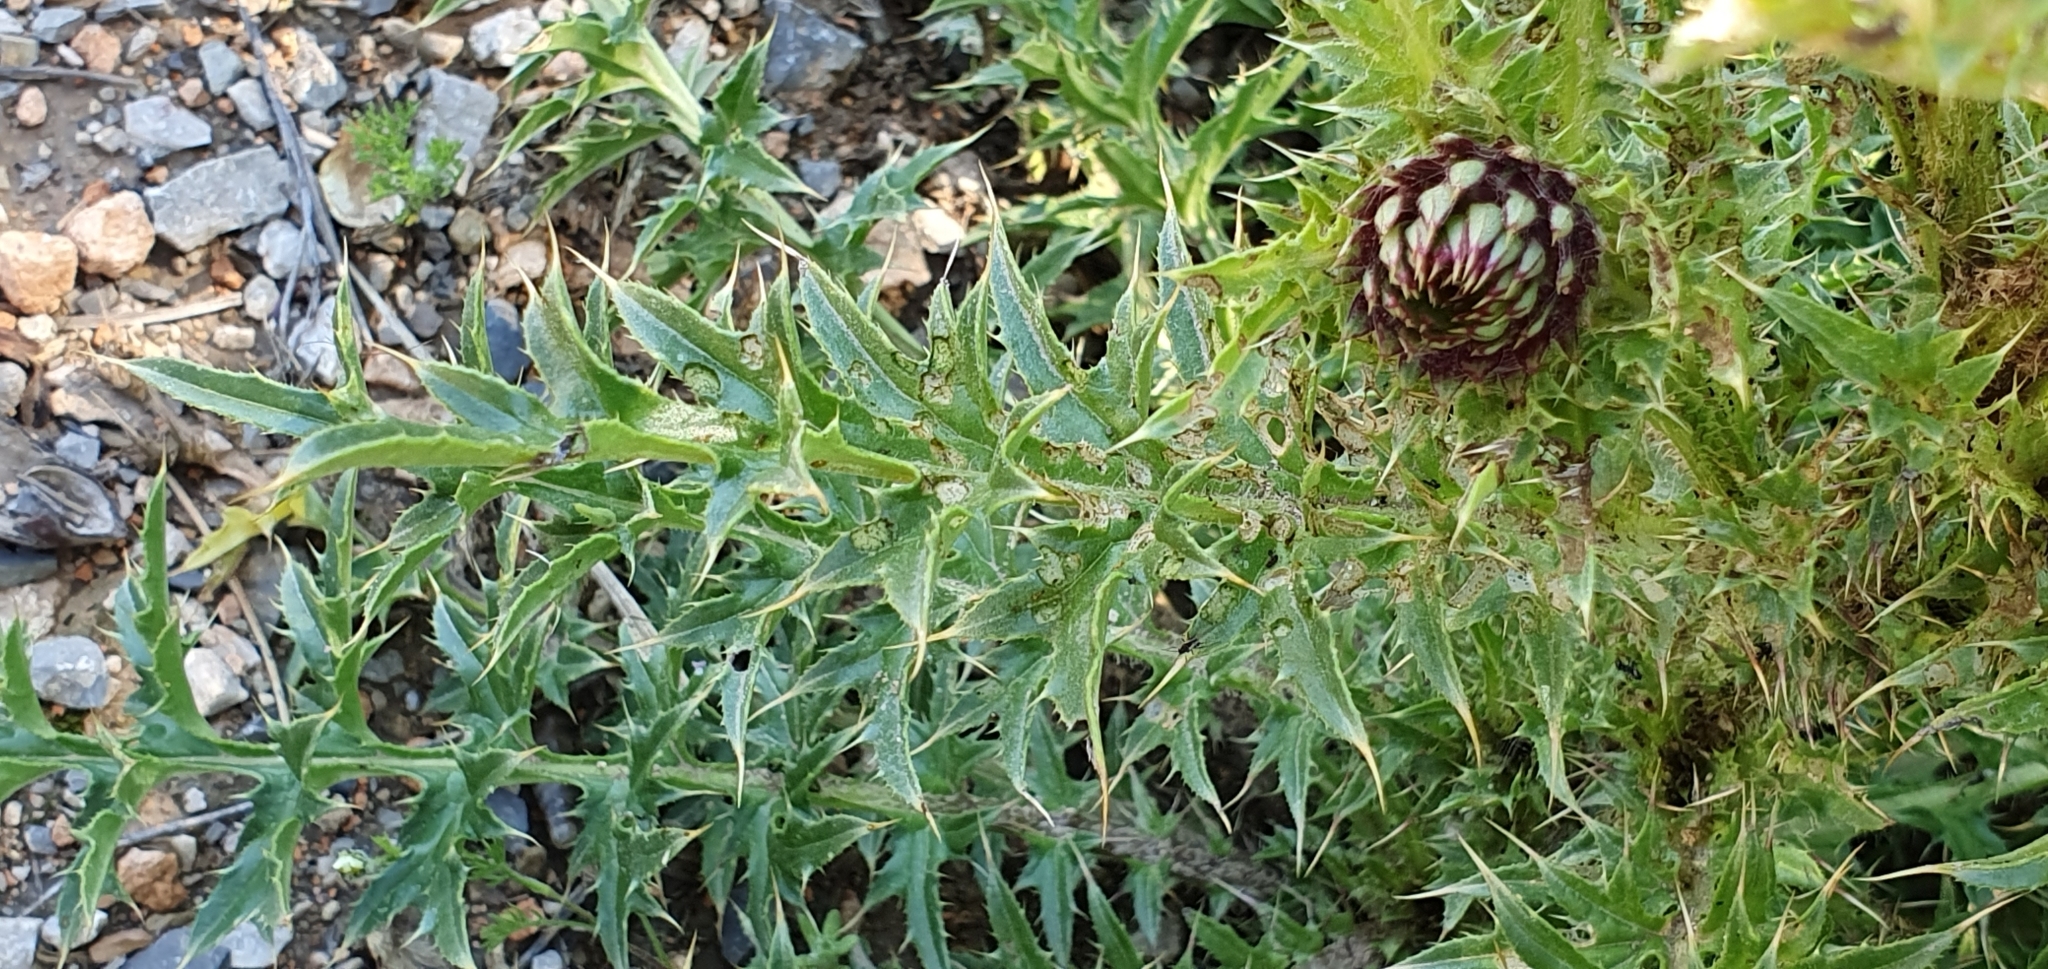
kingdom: Plantae
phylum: Tracheophyta
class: Magnoliopsida
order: Asterales
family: Asteraceae
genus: Carduus
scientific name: Carduus macrocephalus
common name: Giant thistle
